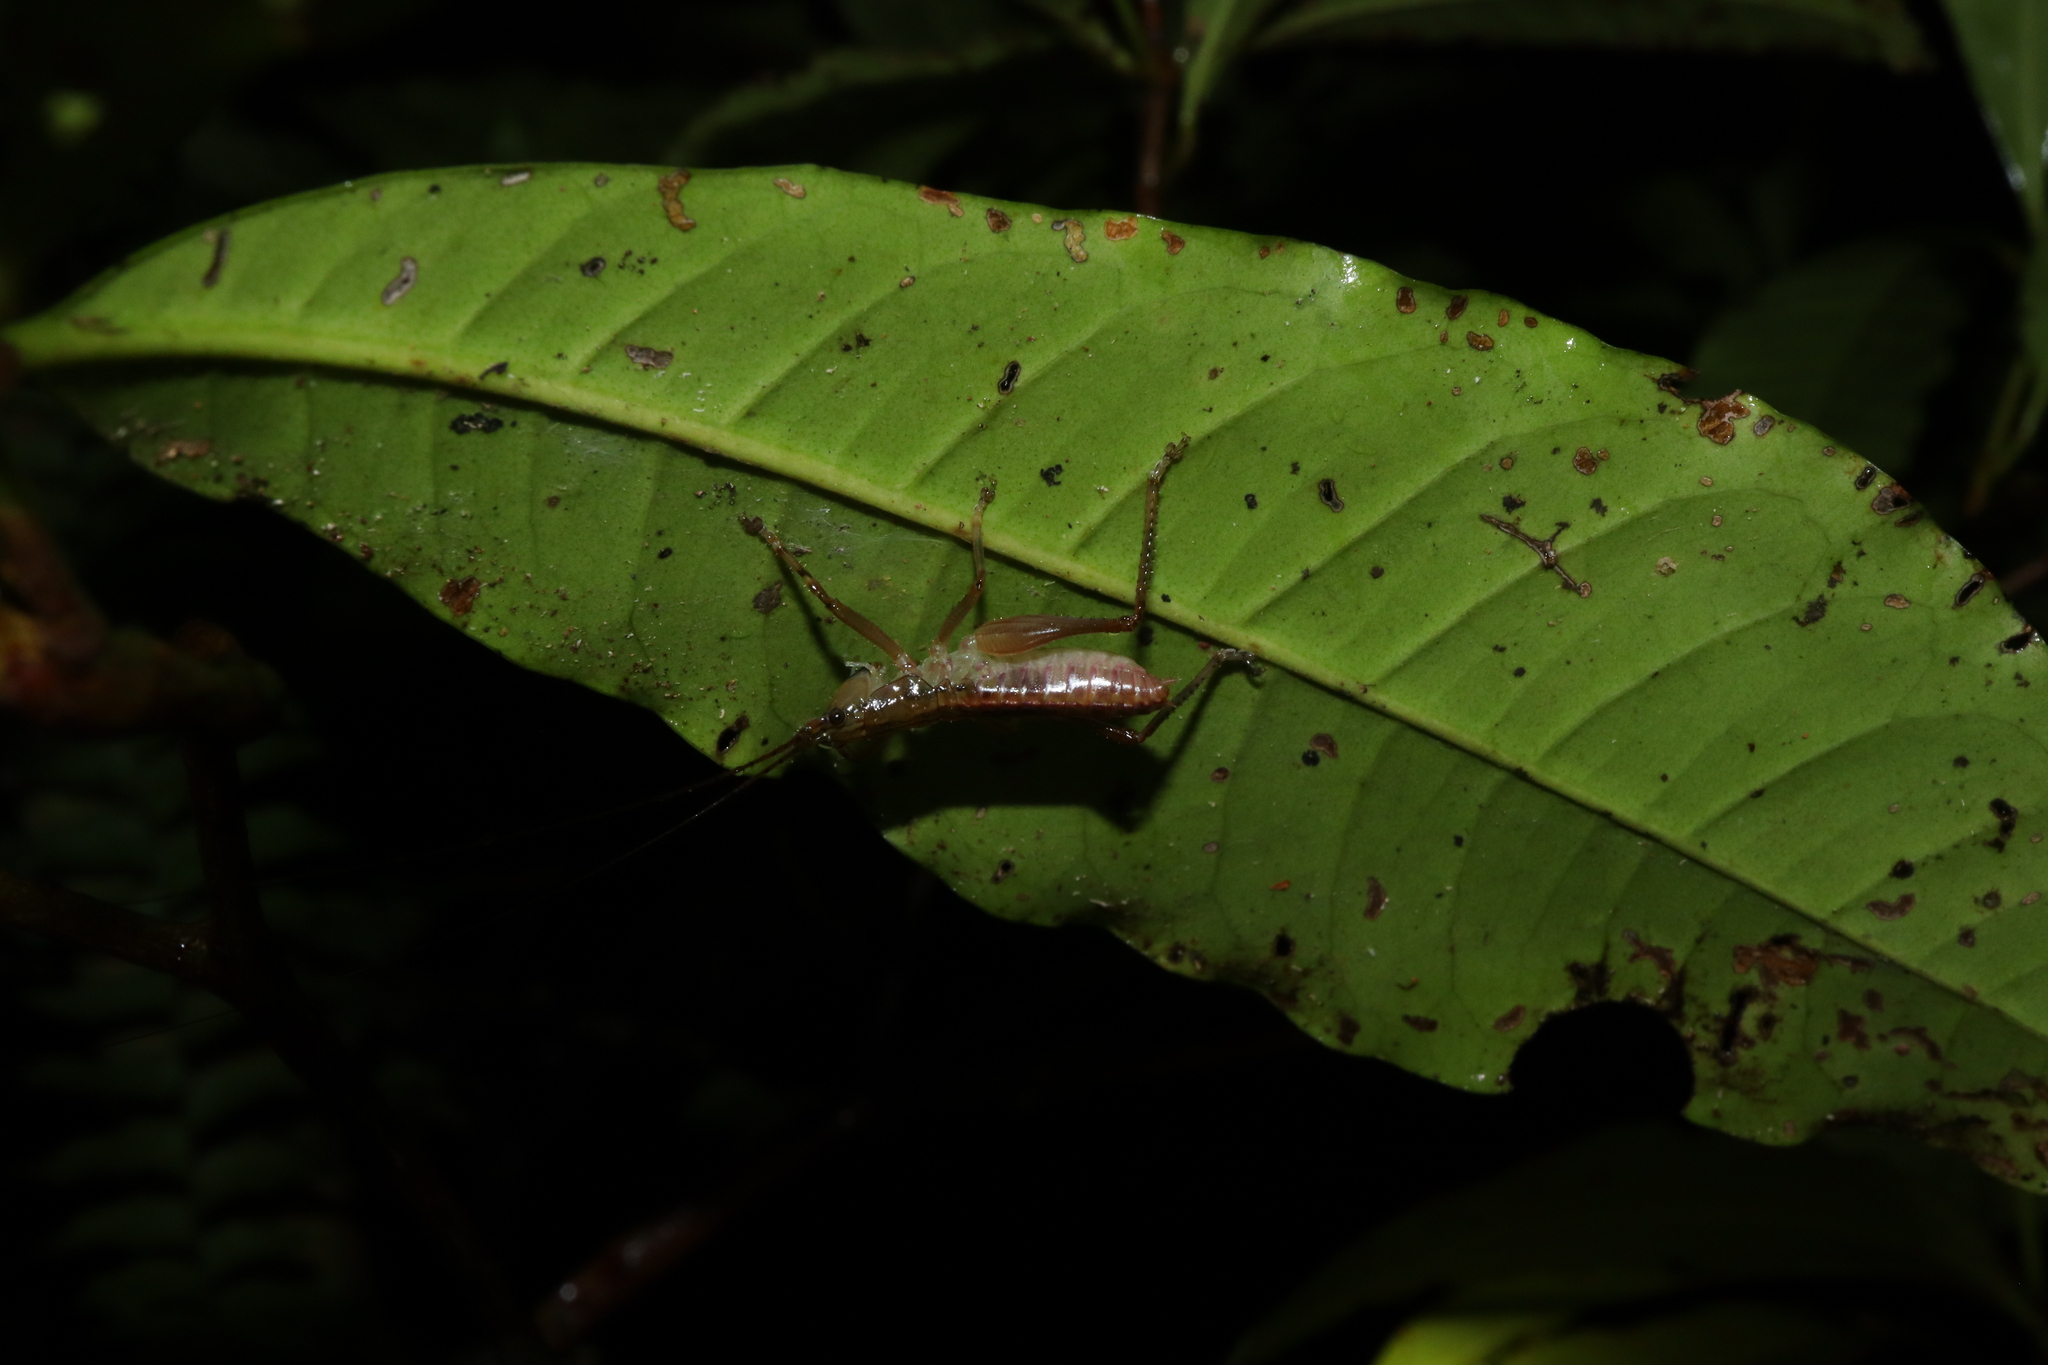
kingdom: Animalia
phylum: Arthropoda
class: Insecta
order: Orthoptera
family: Tettigoniidae
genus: Barbaragraecia
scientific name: Barbaragraecia richardsoni
